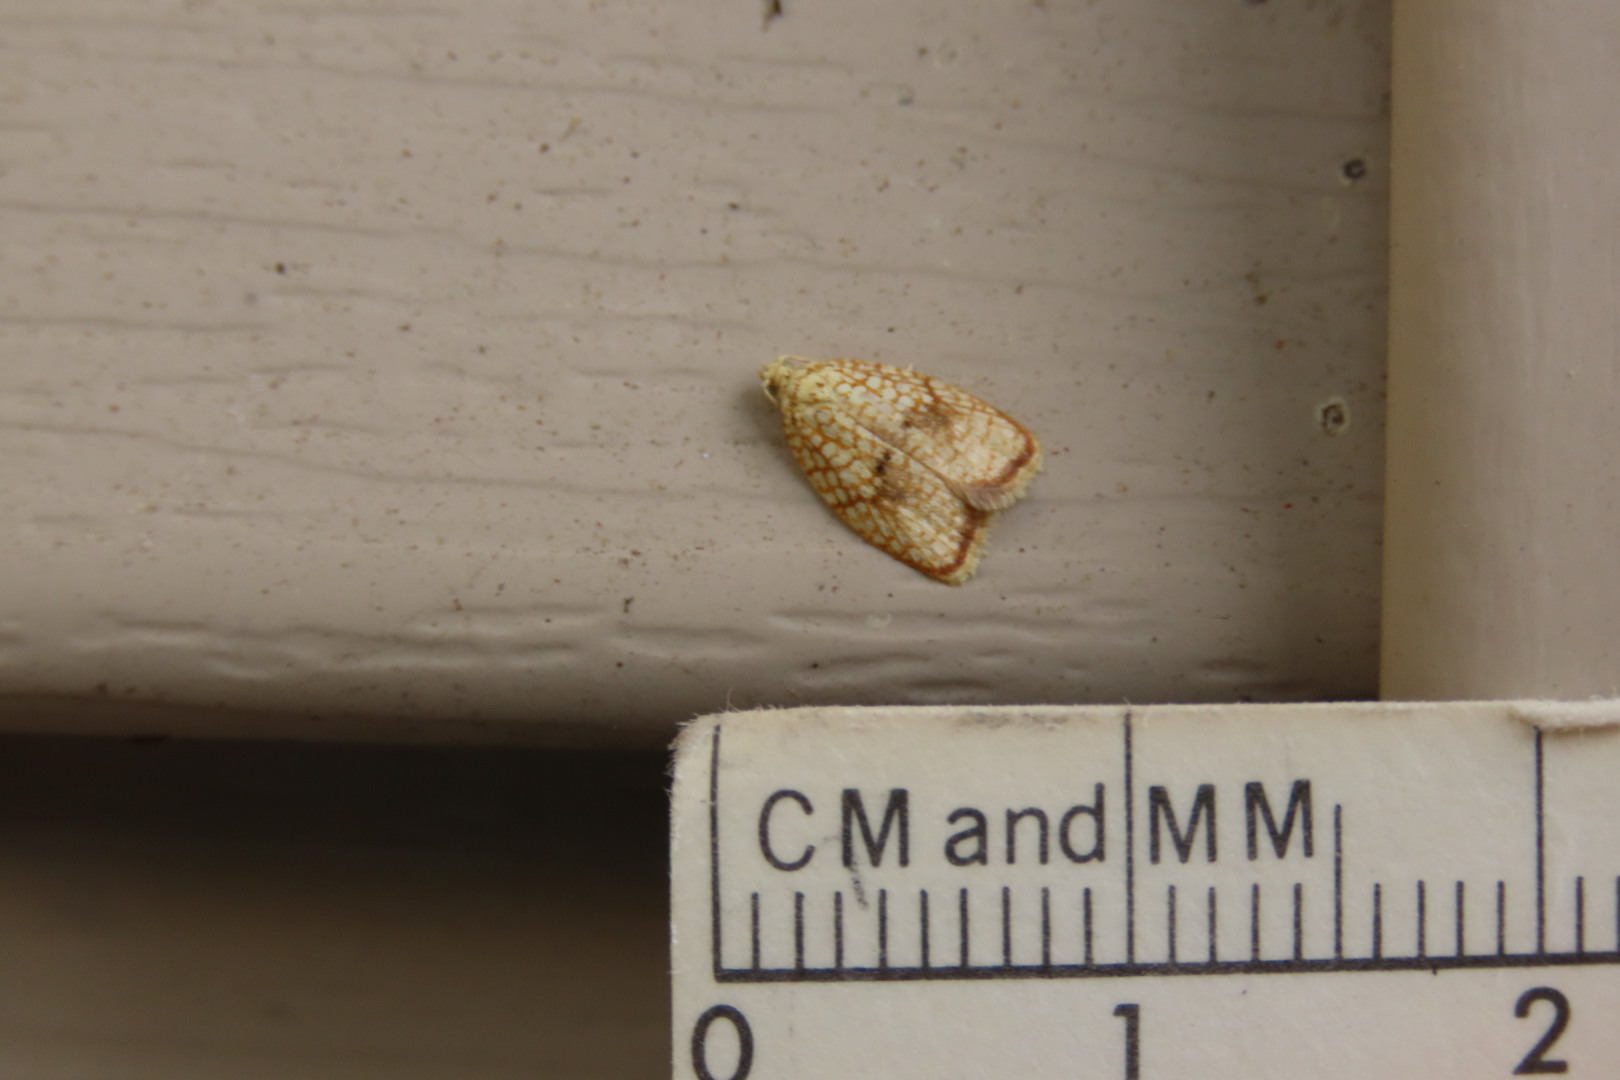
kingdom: Animalia
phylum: Arthropoda
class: Insecta
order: Lepidoptera
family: Tortricidae
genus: Acleris
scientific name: Acleris forsskaleana
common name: Maple button
